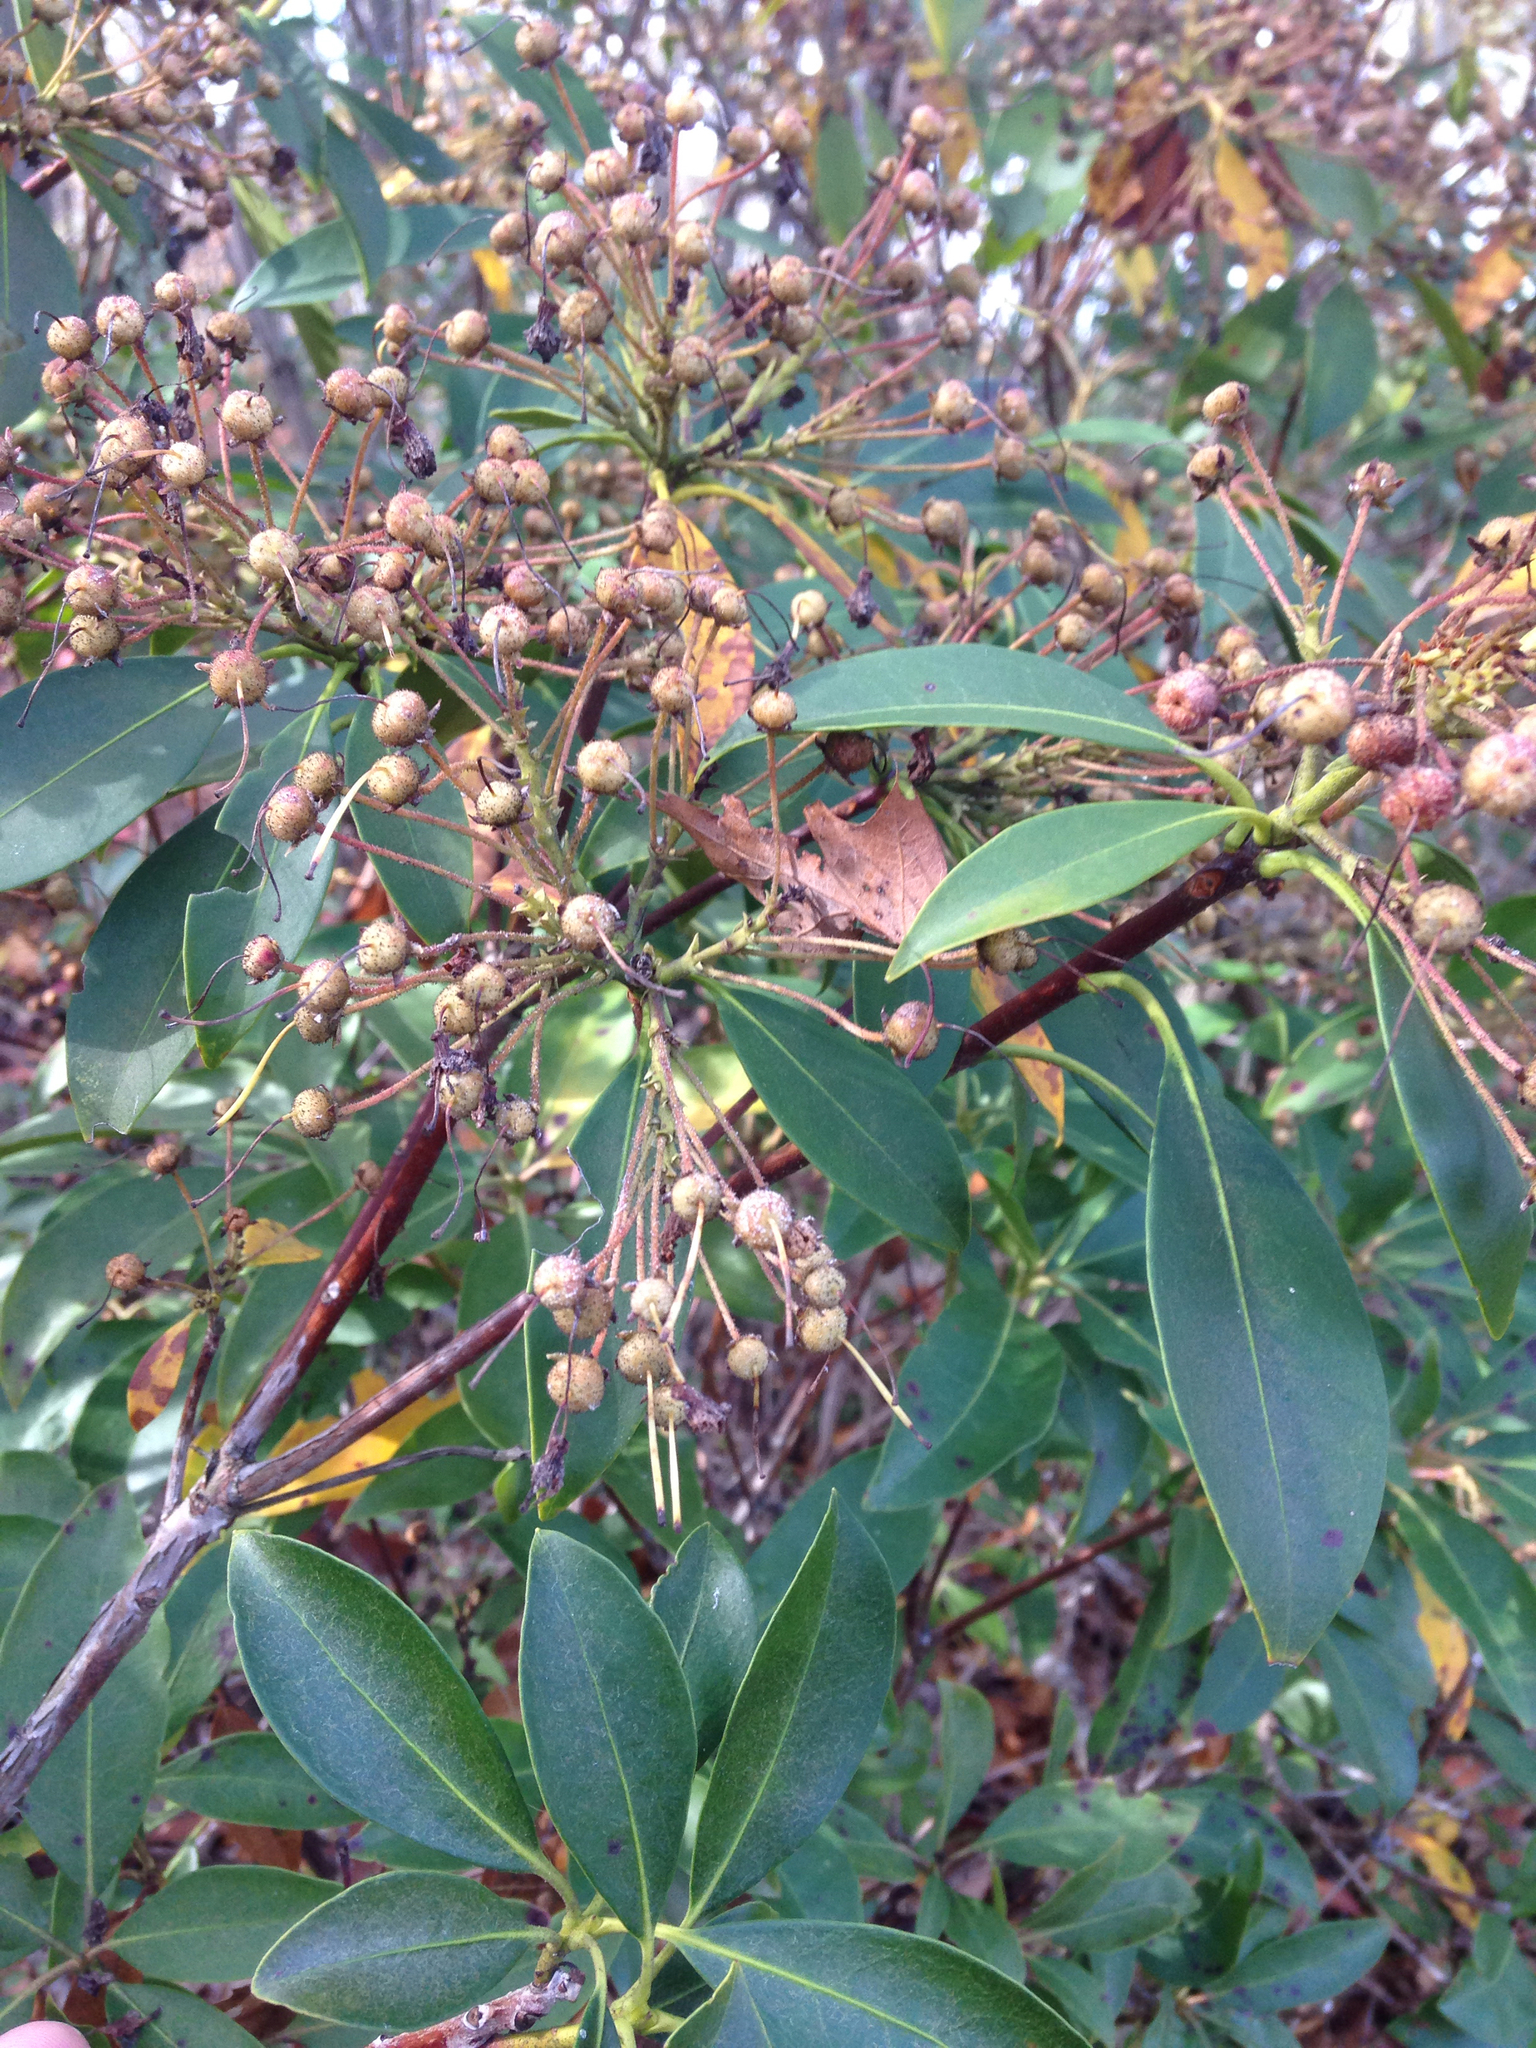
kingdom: Plantae
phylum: Tracheophyta
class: Magnoliopsida
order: Ericales
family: Ericaceae
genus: Kalmia
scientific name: Kalmia latifolia
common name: Mountain-laurel
